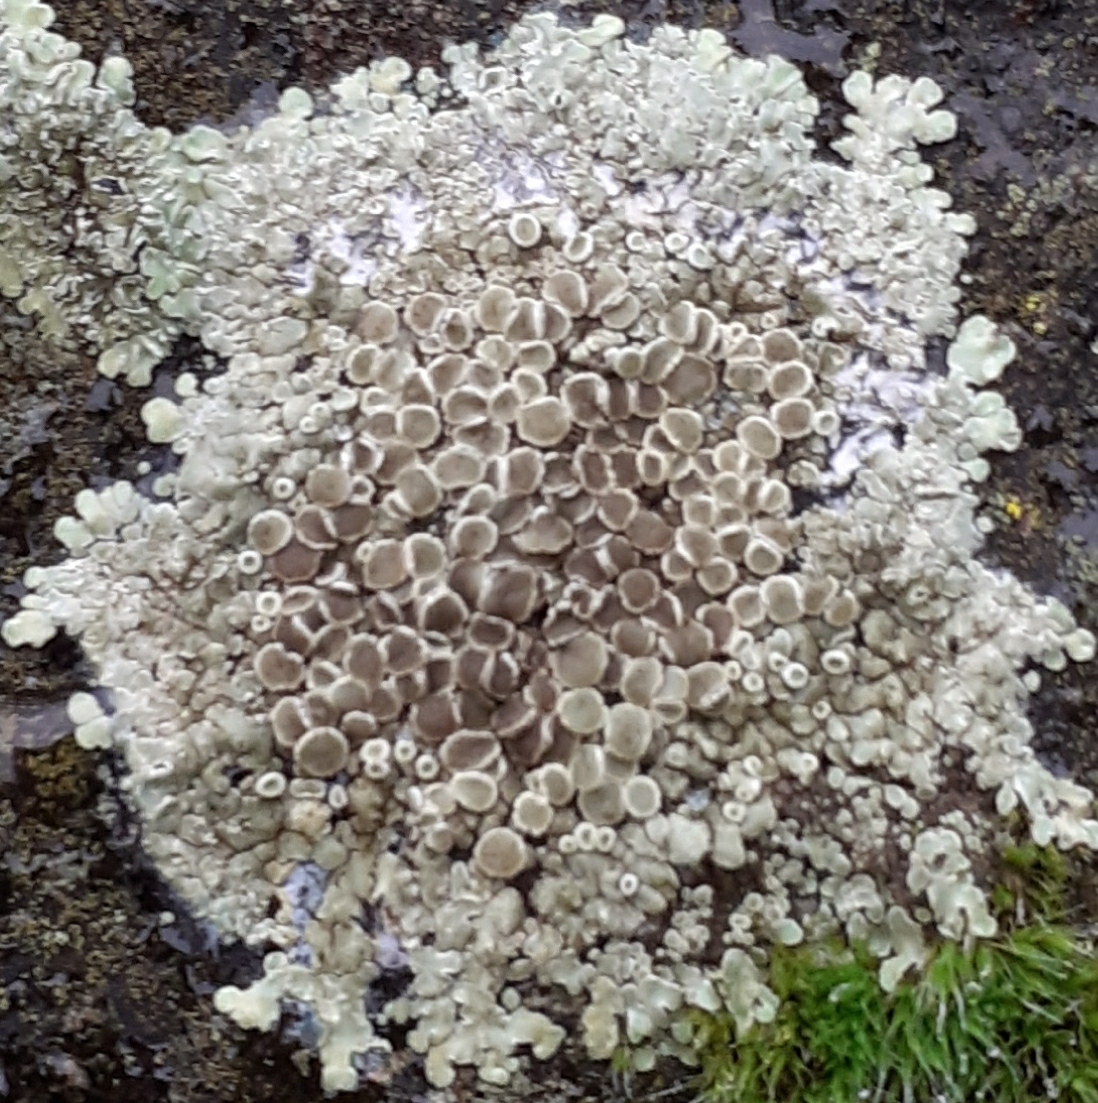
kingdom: Fungi
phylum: Ascomycota
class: Lecanoromycetes
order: Lecanorales
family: Lecanoraceae
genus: Protoparmeliopsis
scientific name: Protoparmeliopsis muralis
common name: Stonewall rim lichen
